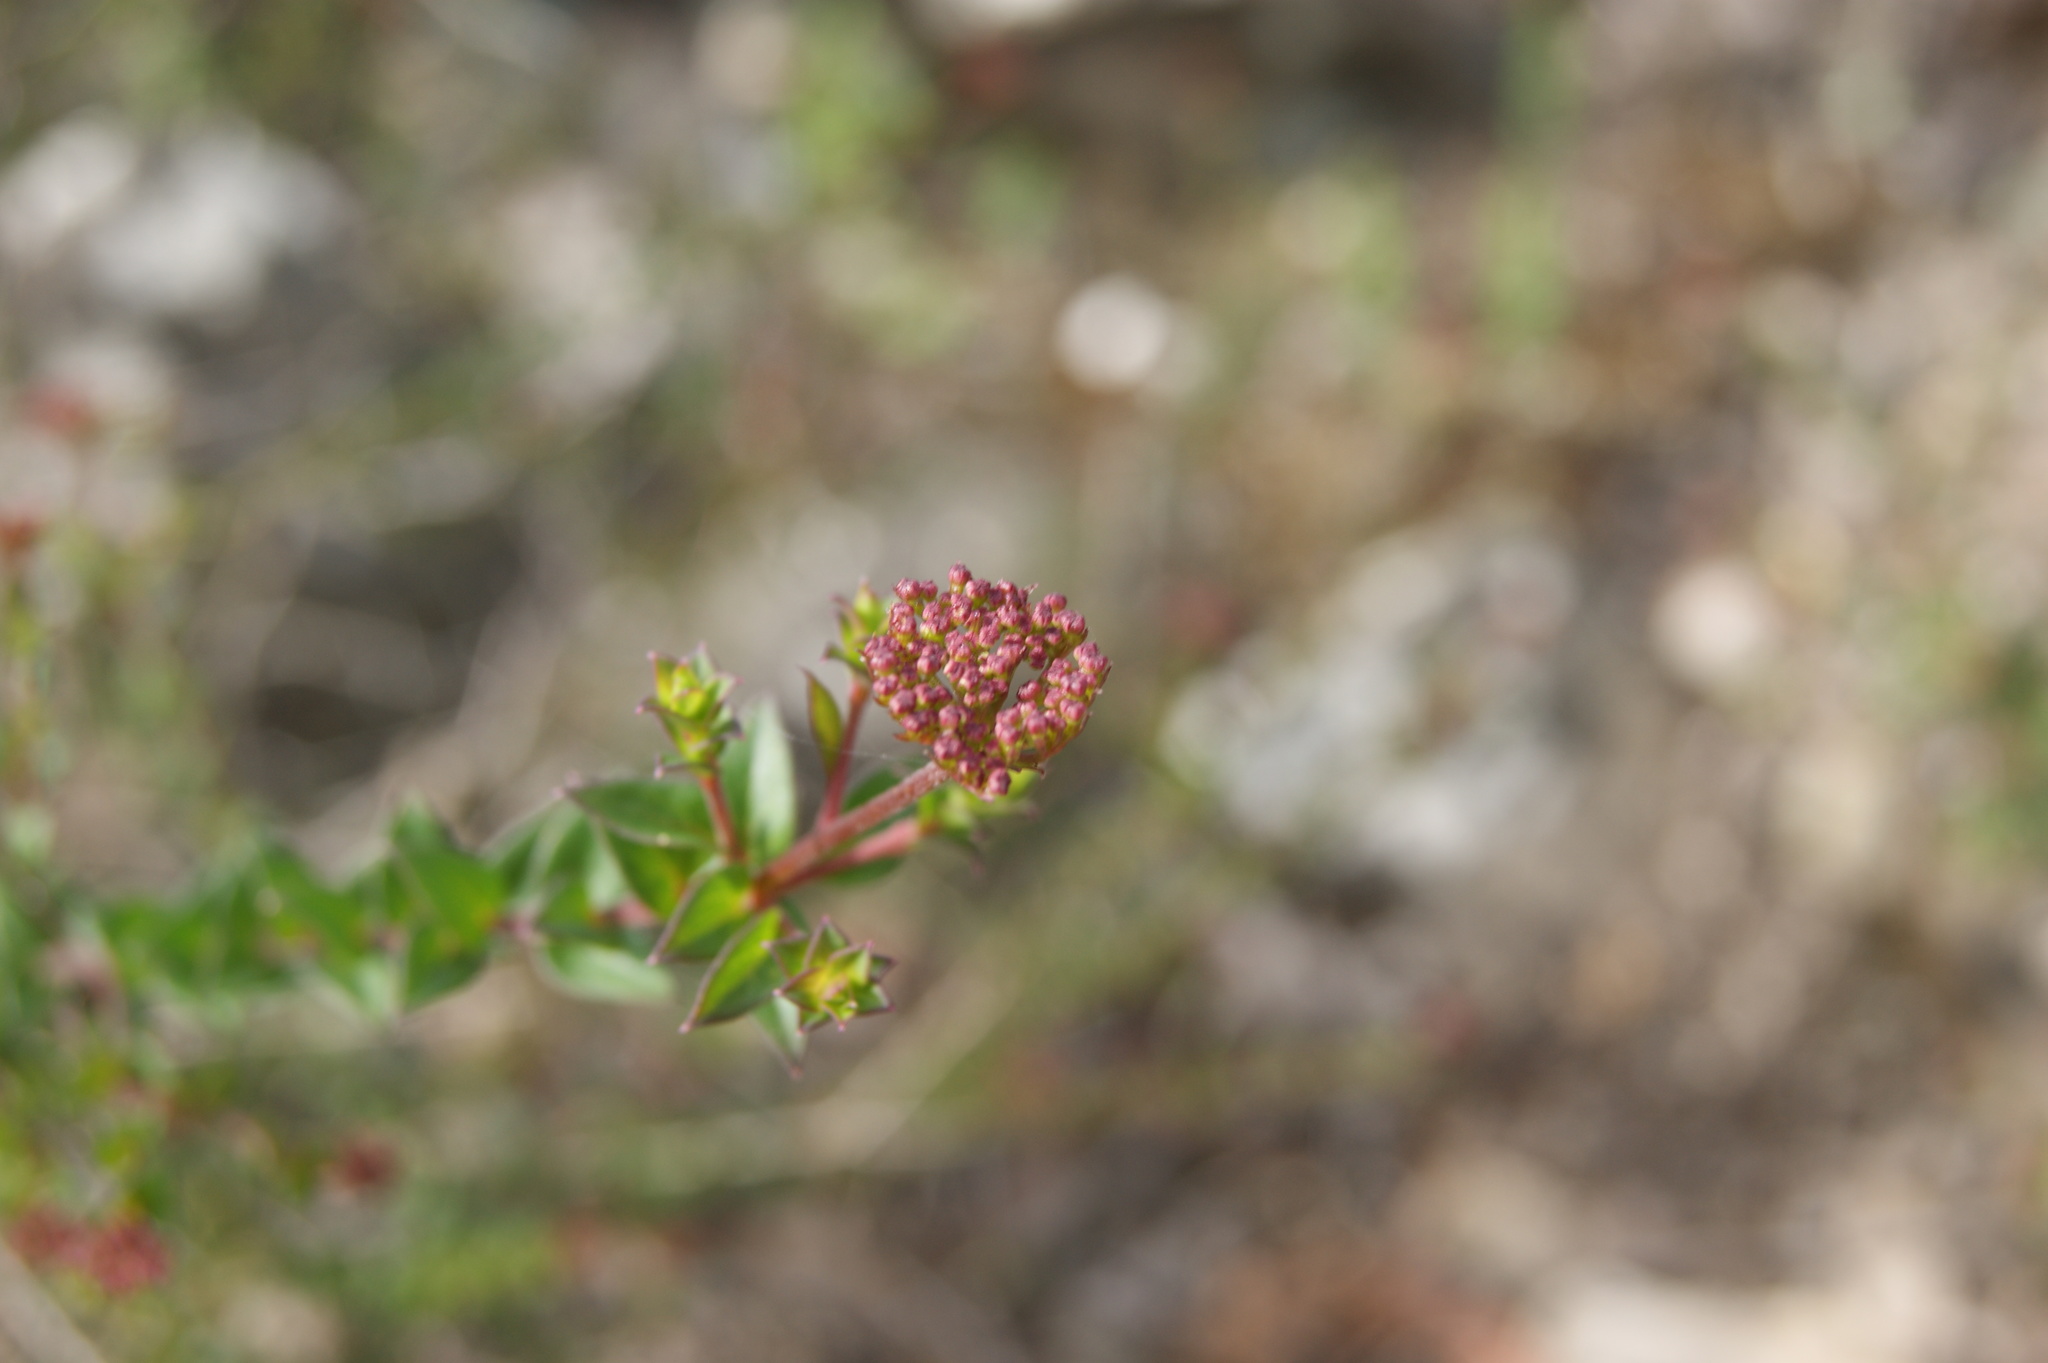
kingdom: Plantae
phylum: Tracheophyta
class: Magnoliopsida
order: Apiales
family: Apiaceae
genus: Platysace
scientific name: Platysace lanceolata
